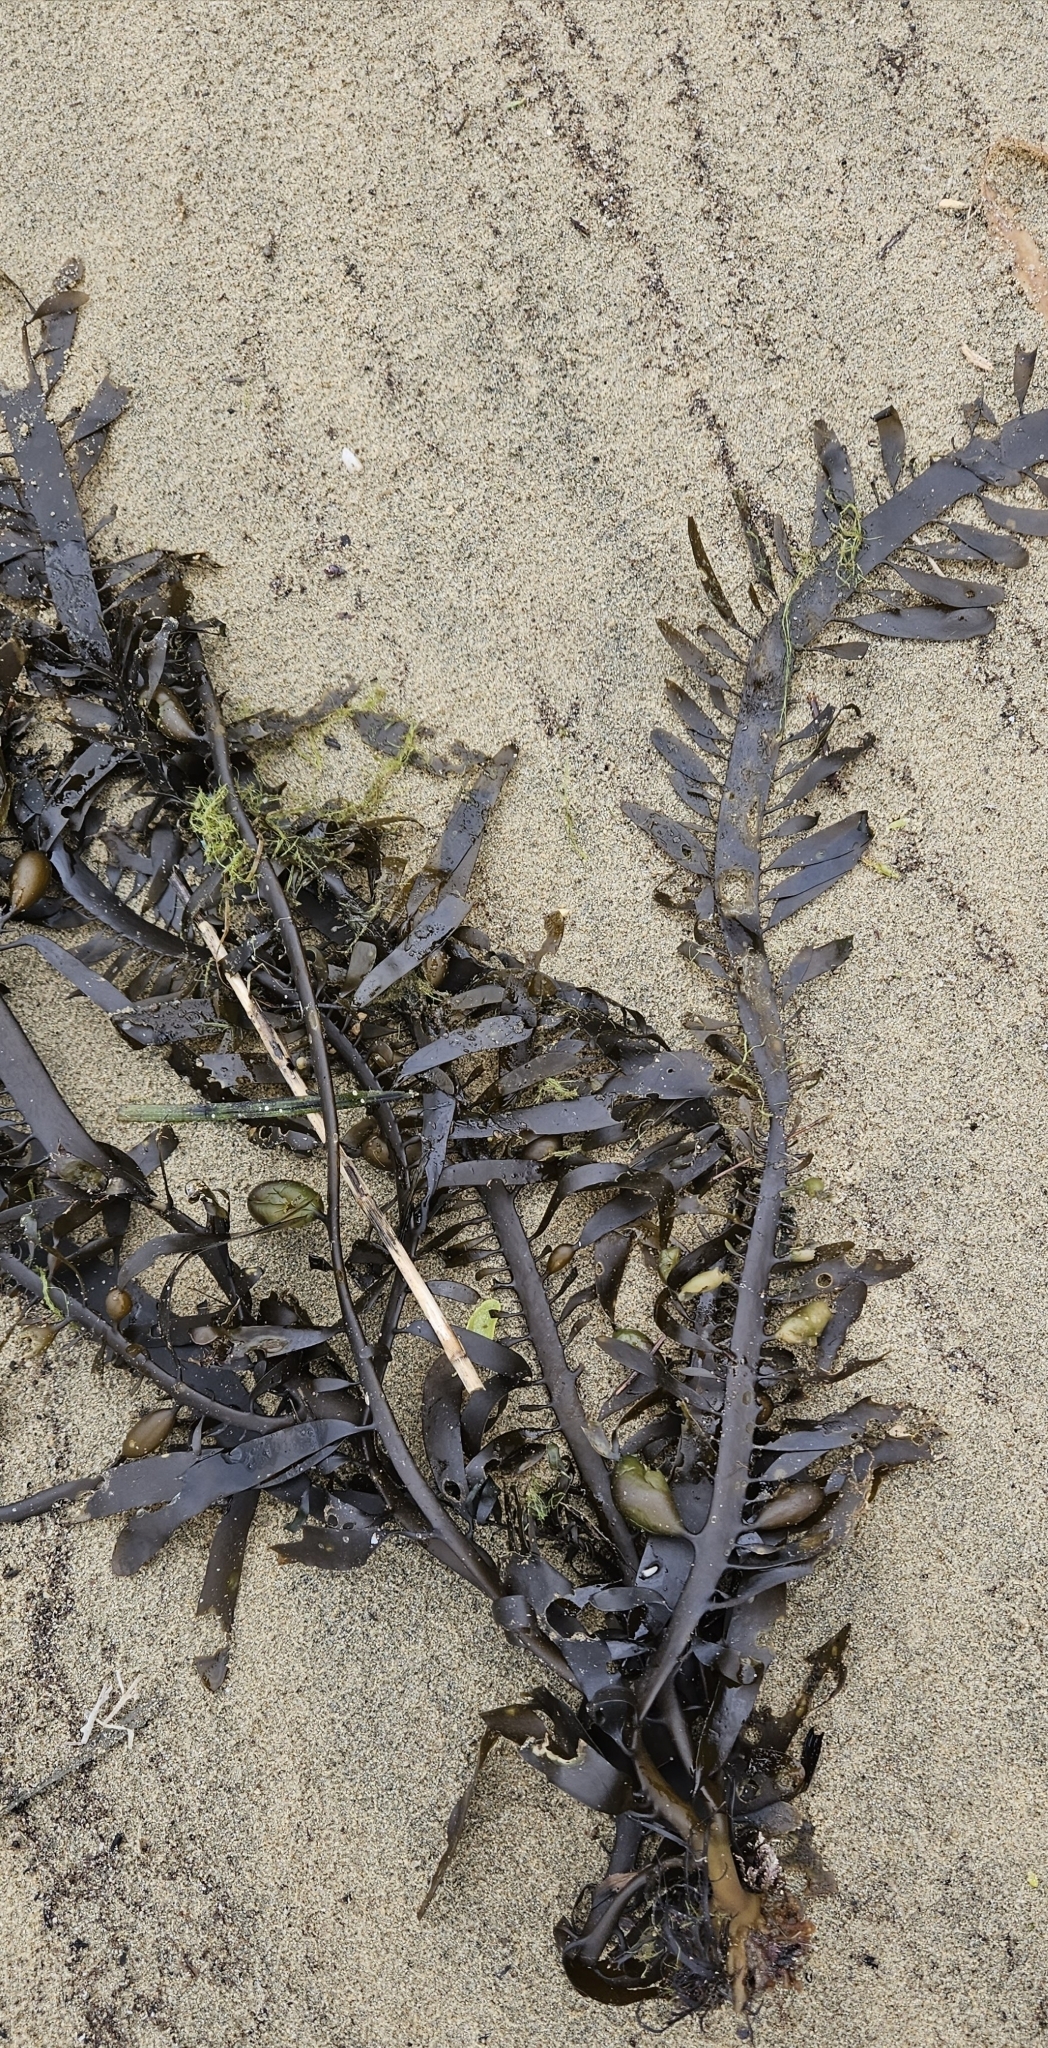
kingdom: Chromista
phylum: Ochrophyta
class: Phaeophyceae
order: Laminariales
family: Lessoniaceae
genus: Egregia
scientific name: Egregia menziesii
